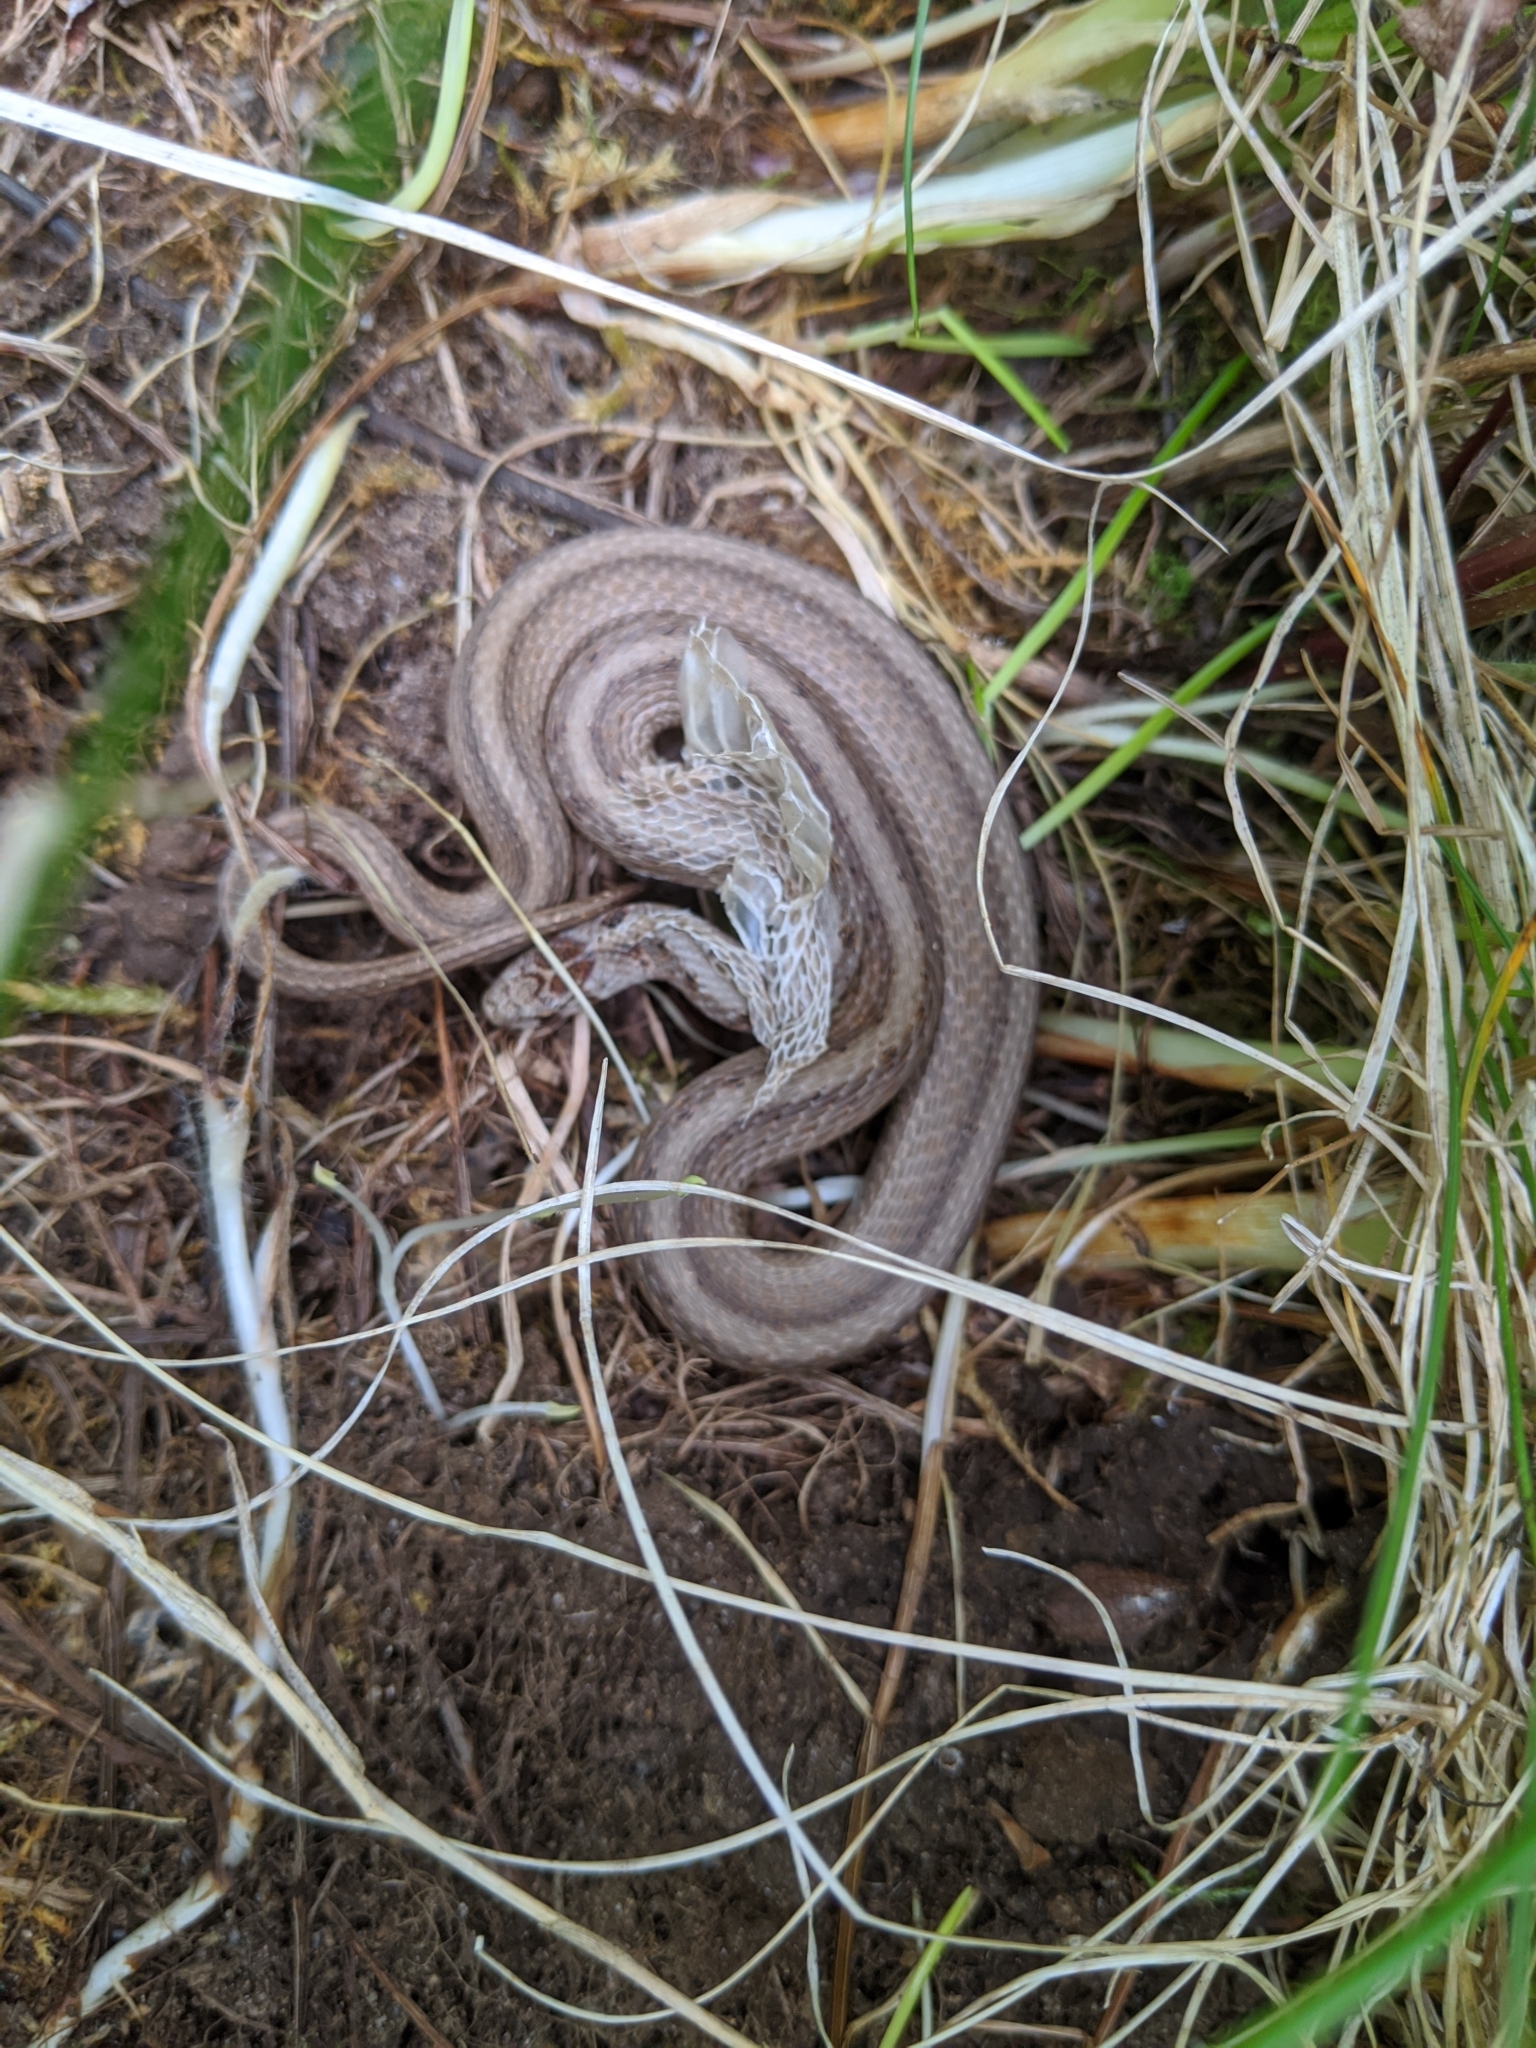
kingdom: Animalia
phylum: Chordata
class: Squamata
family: Colubridae
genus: Storeria
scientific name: Storeria dekayi
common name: (dekay’s) brown snake
